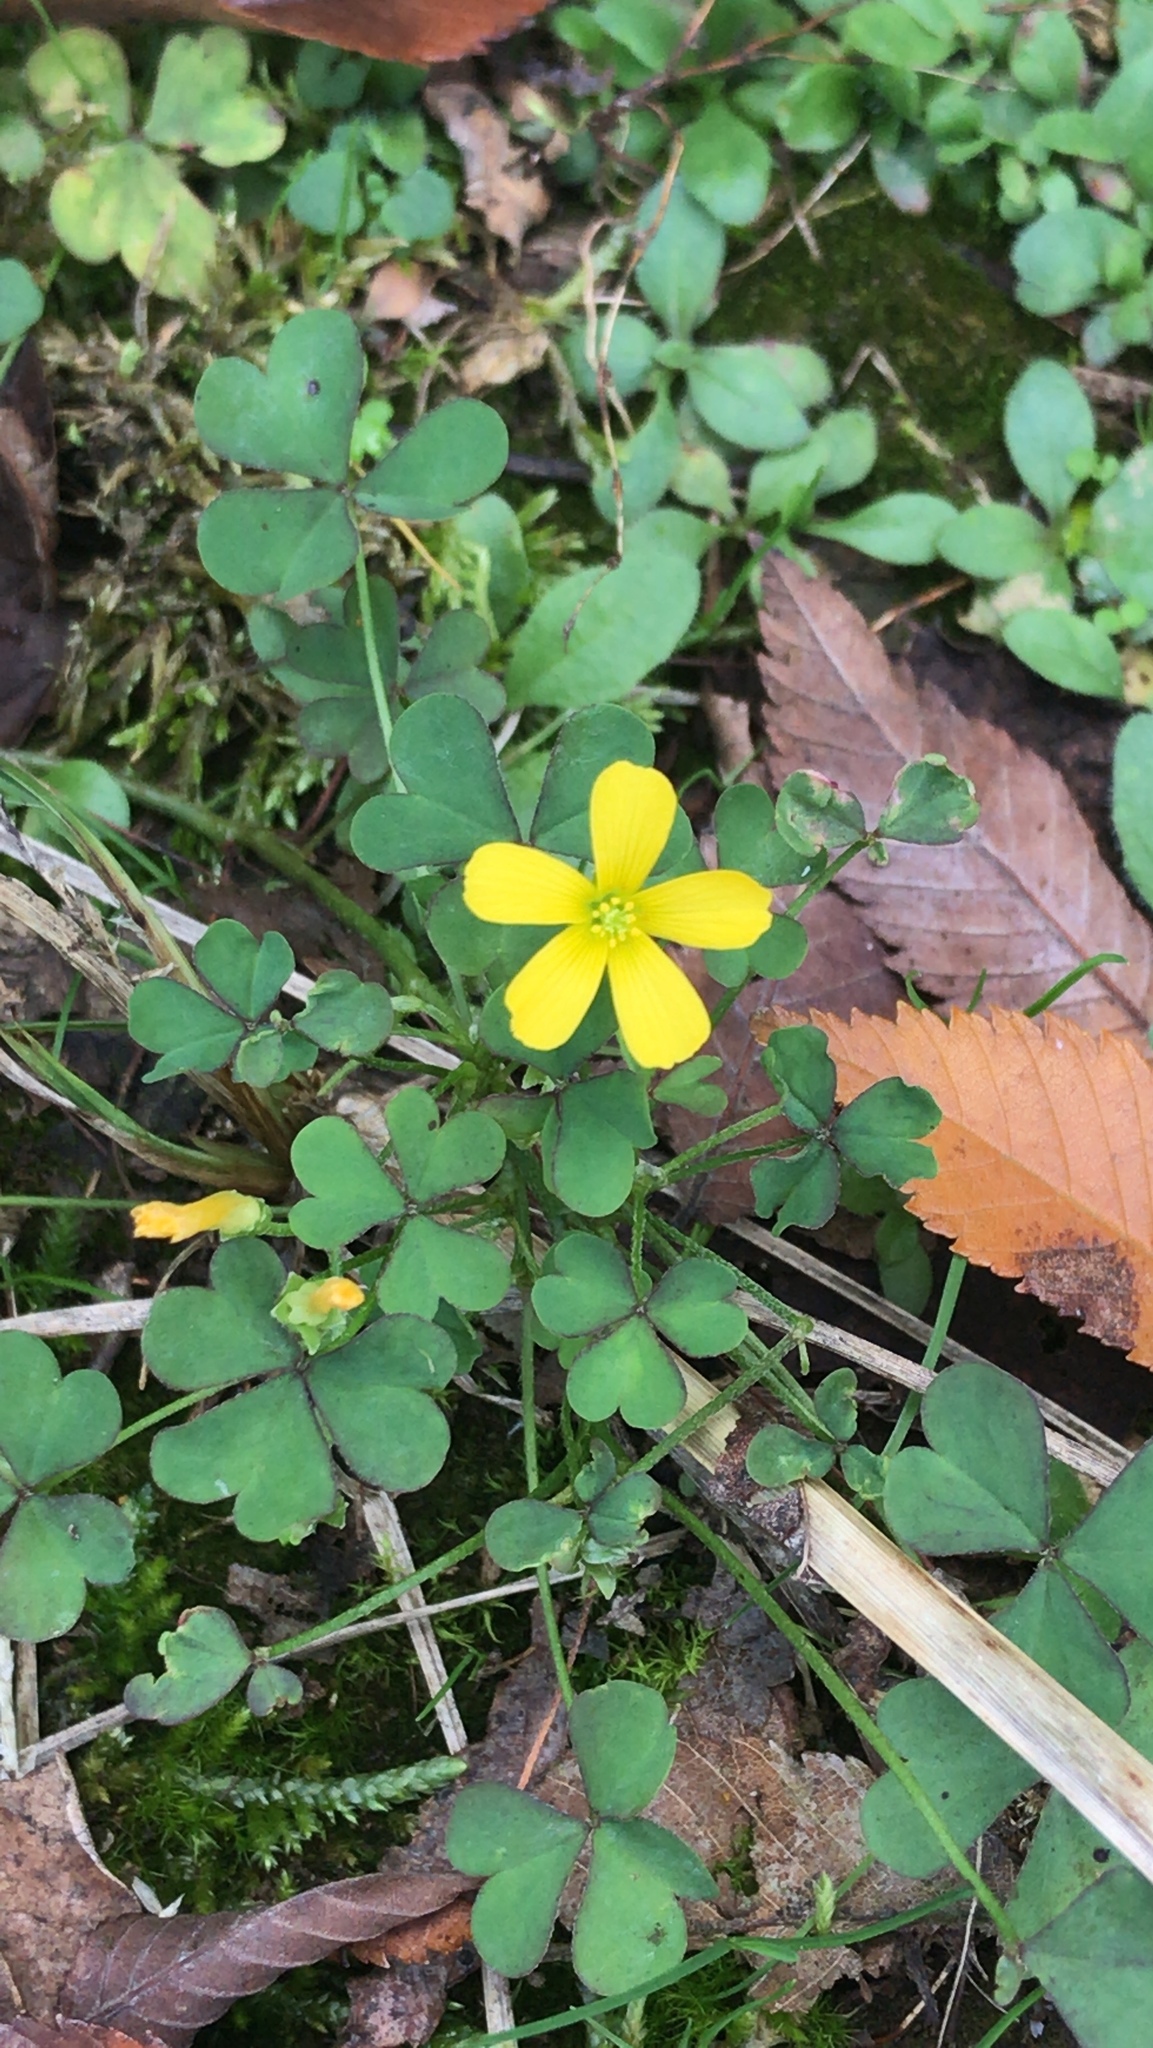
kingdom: Plantae
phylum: Tracheophyta
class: Magnoliopsida
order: Oxalidales
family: Oxalidaceae
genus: Oxalis
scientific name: Oxalis corniculata
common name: Procumbent yellow-sorrel
